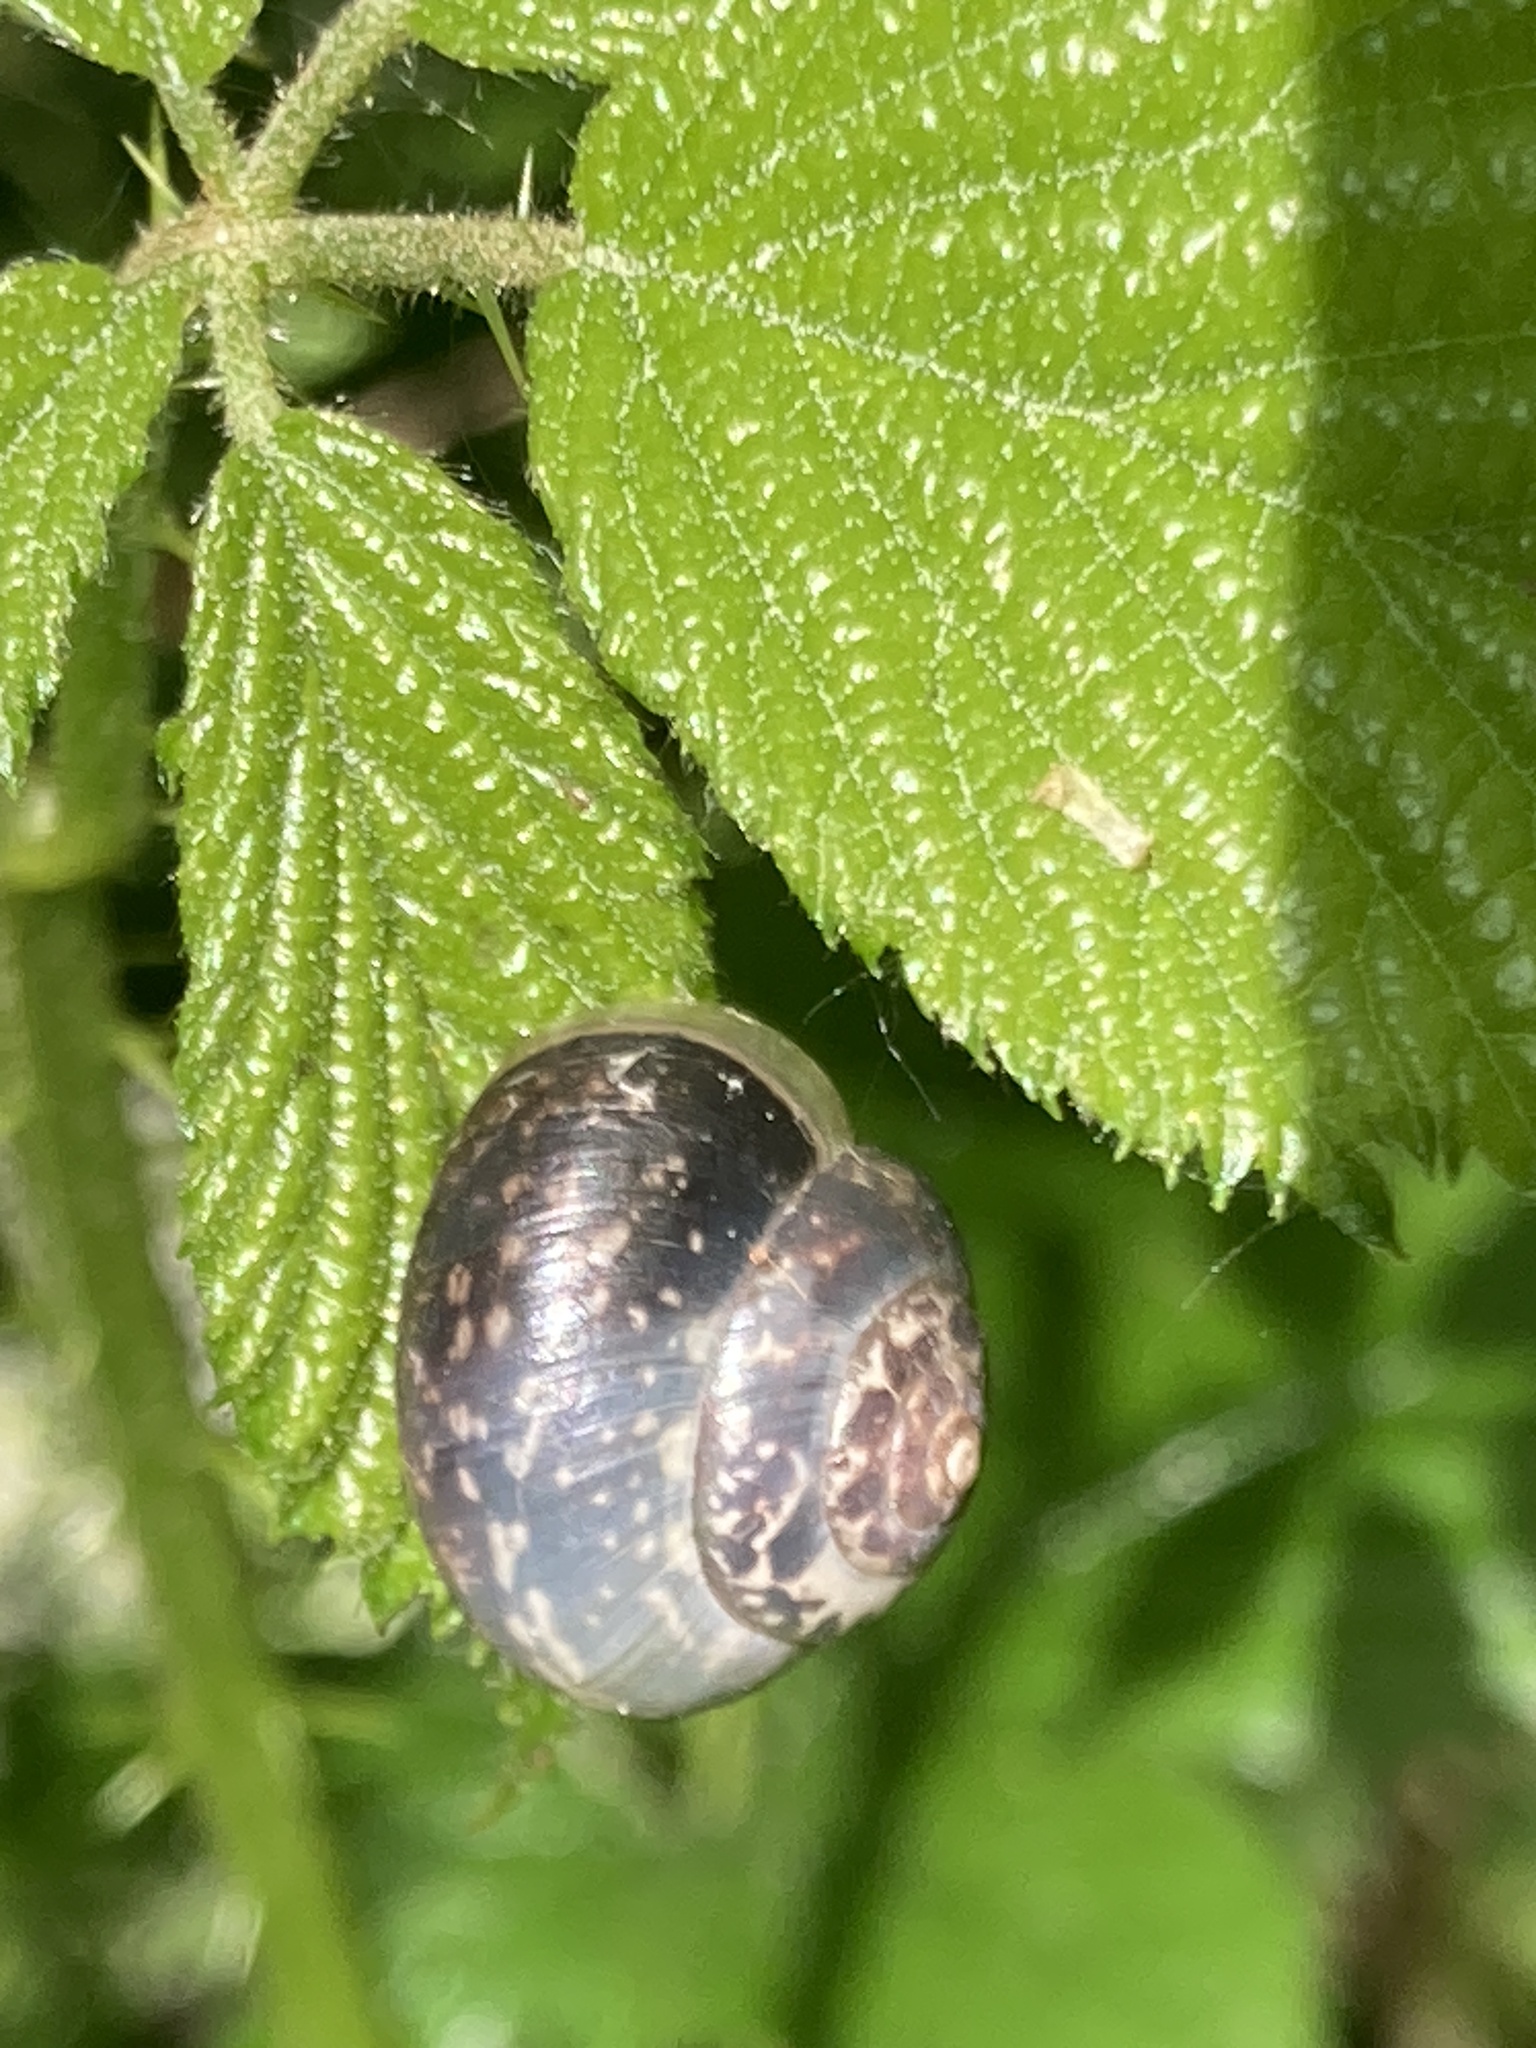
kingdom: Animalia
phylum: Mollusca
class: Gastropoda
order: Stylommatophora
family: Hygromiidae
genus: Monacha
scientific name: Monacha cantiana
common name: Kentish snail
